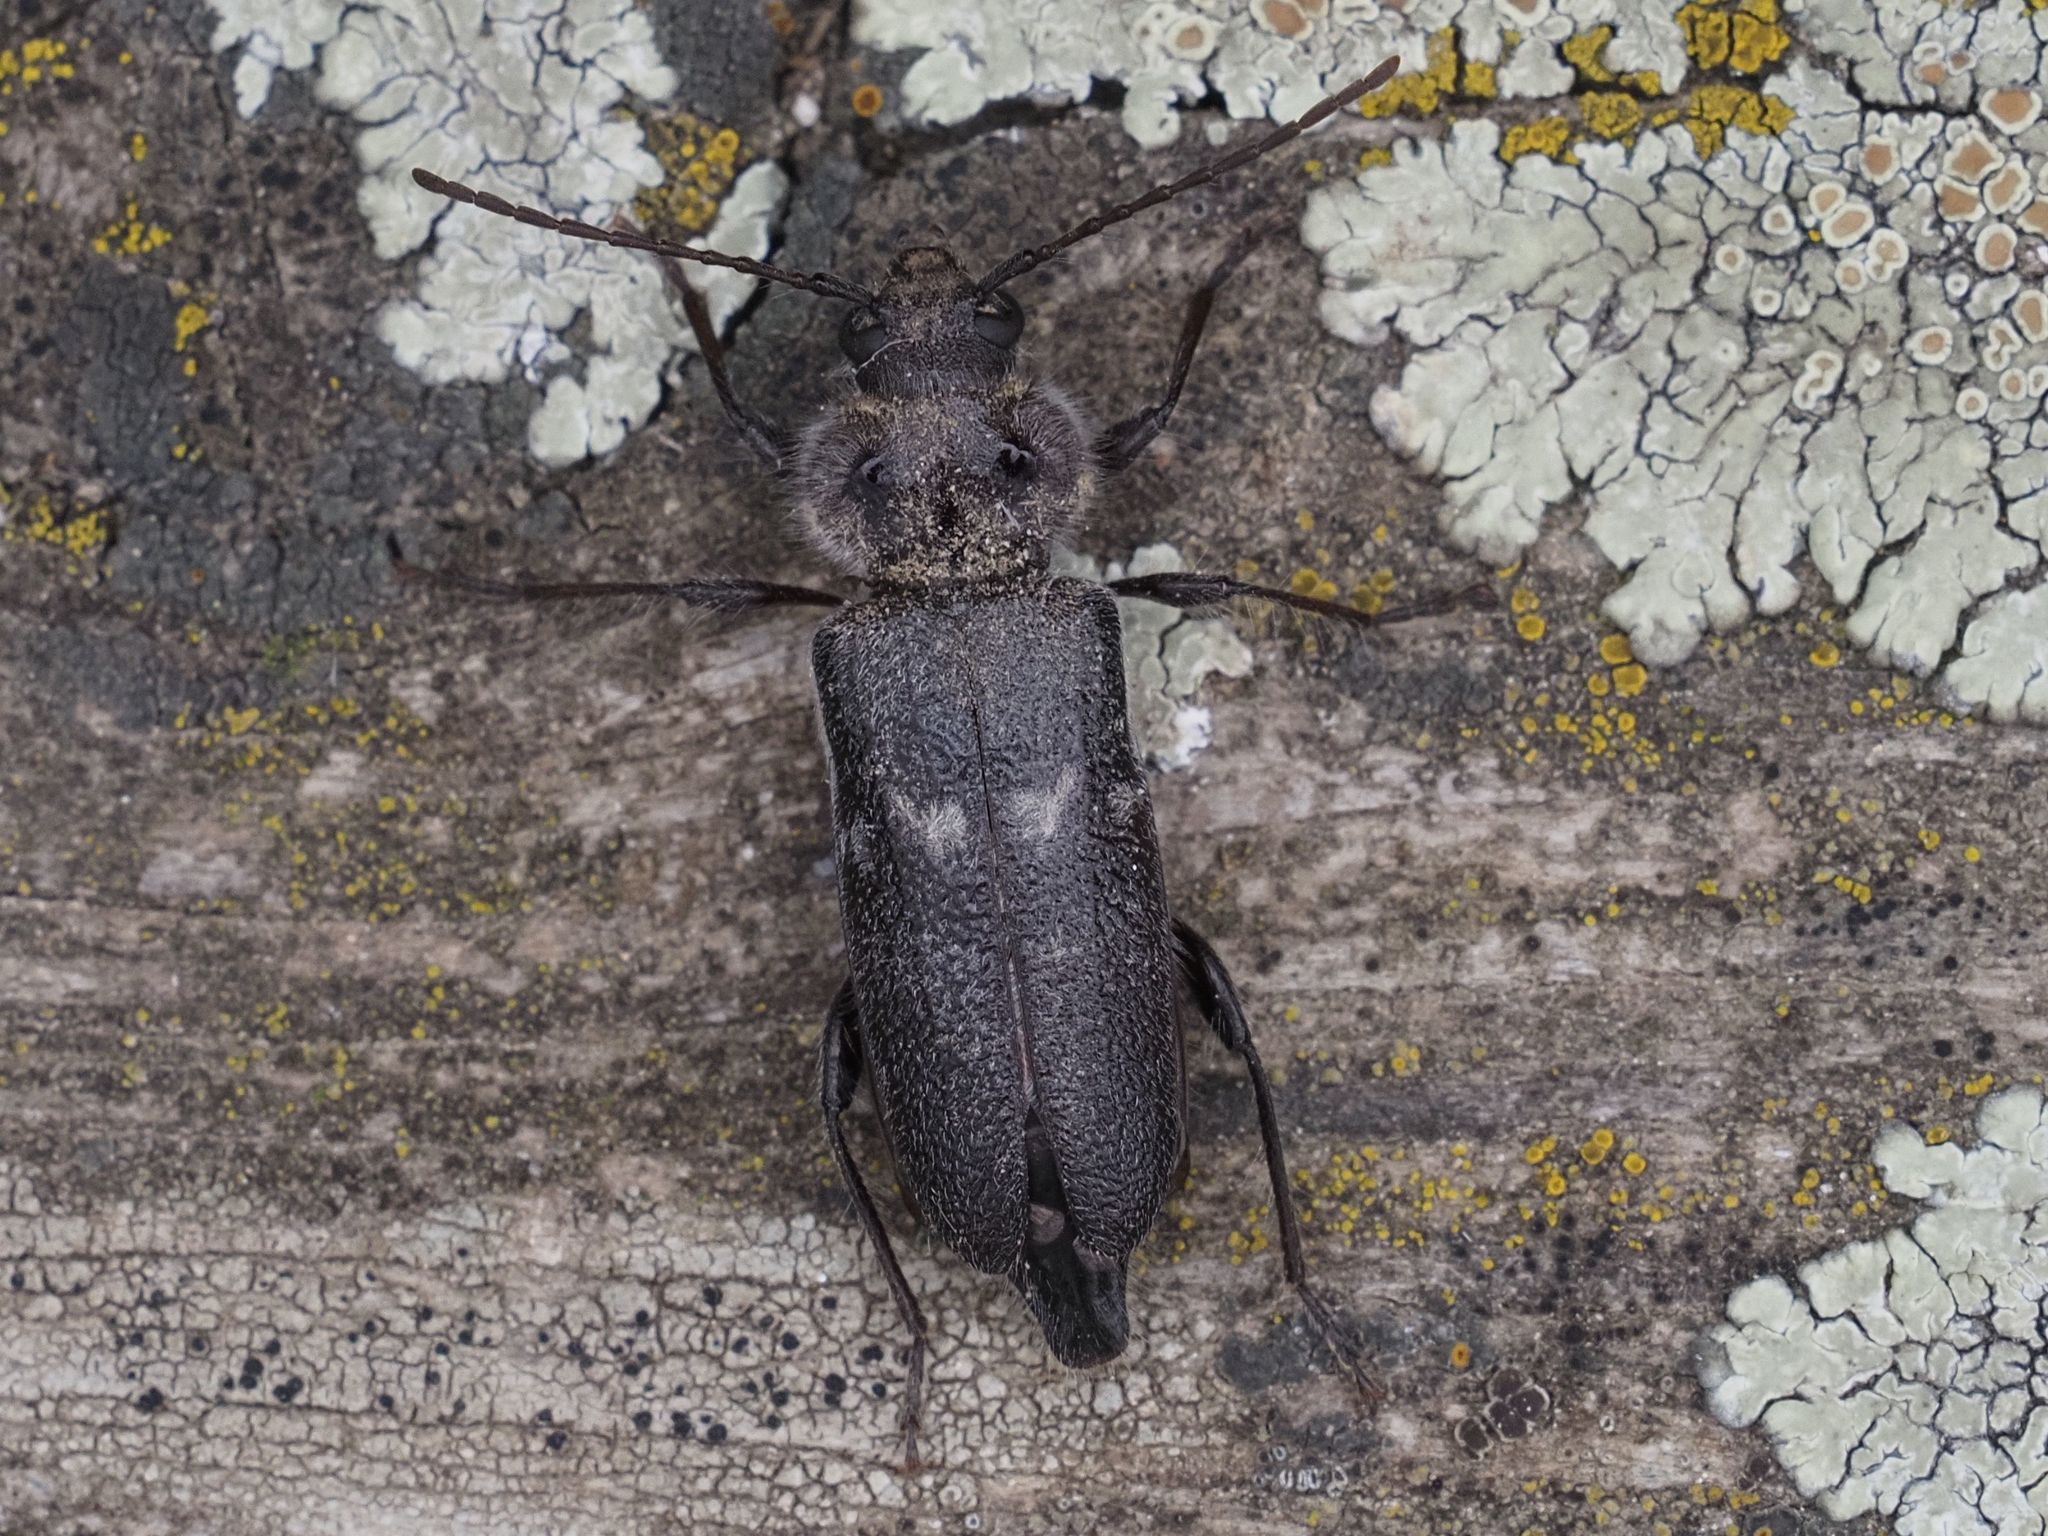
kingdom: Animalia
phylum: Arthropoda
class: Insecta
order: Coleoptera
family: Cerambycidae
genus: Hylotrupes
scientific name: Hylotrupes bajulus
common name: Old house borer
